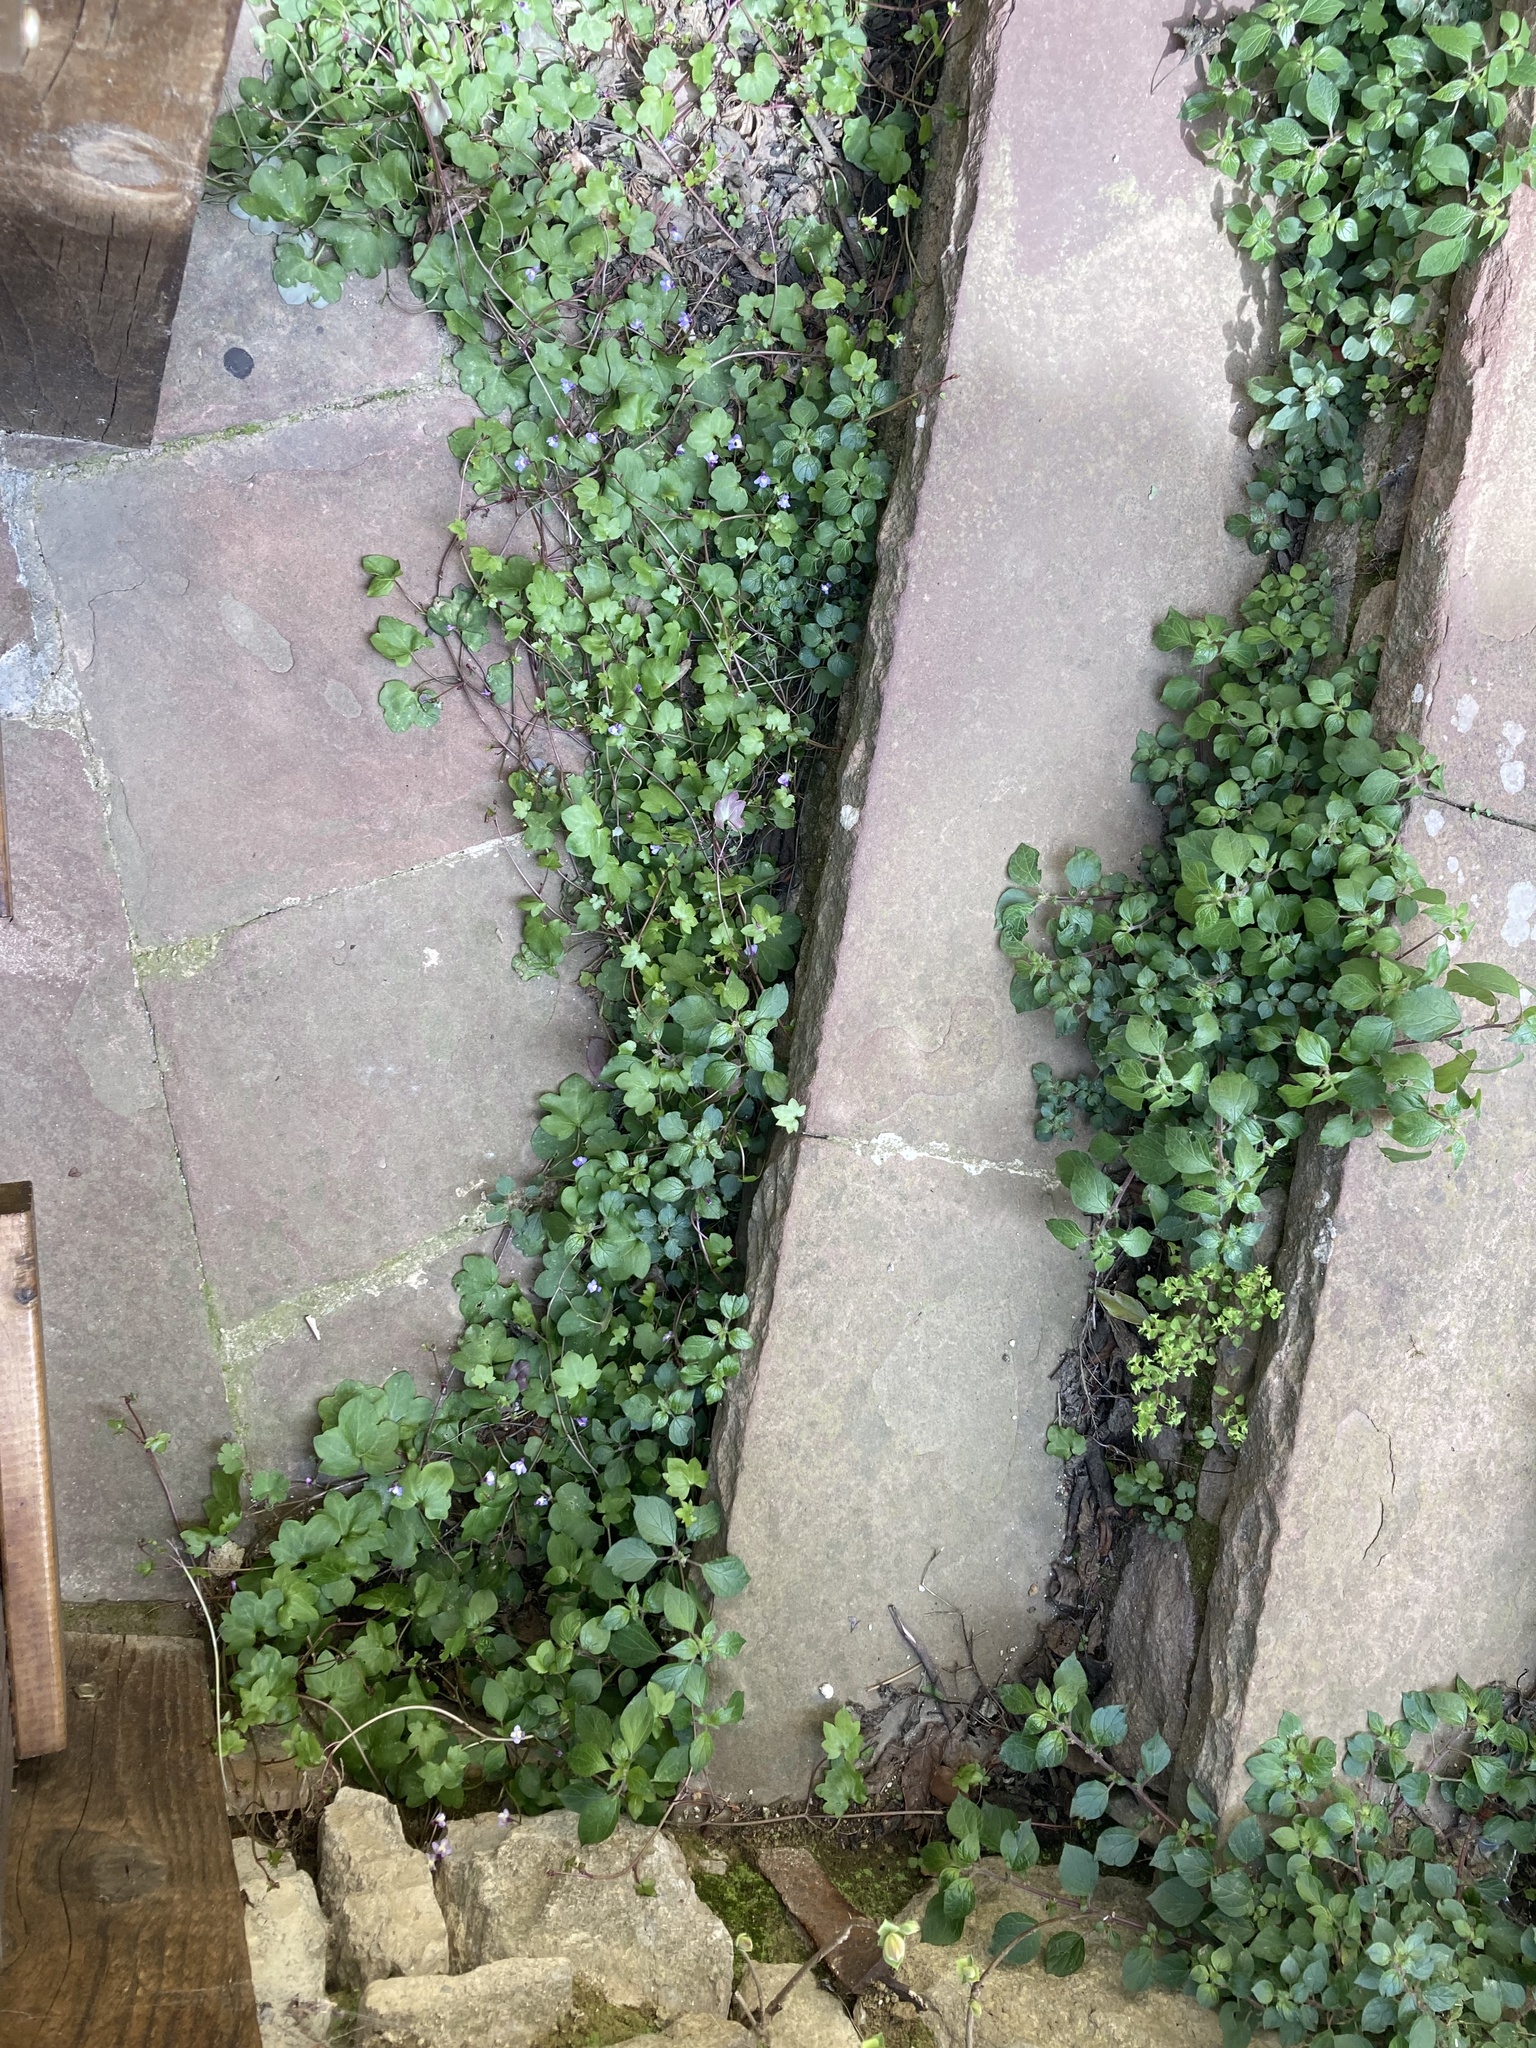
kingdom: Plantae
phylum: Tracheophyta
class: Magnoliopsida
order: Lamiales
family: Plantaginaceae
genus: Cymbalaria
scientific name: Cymbalaria muralis
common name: Ivy-leaved toadflax
